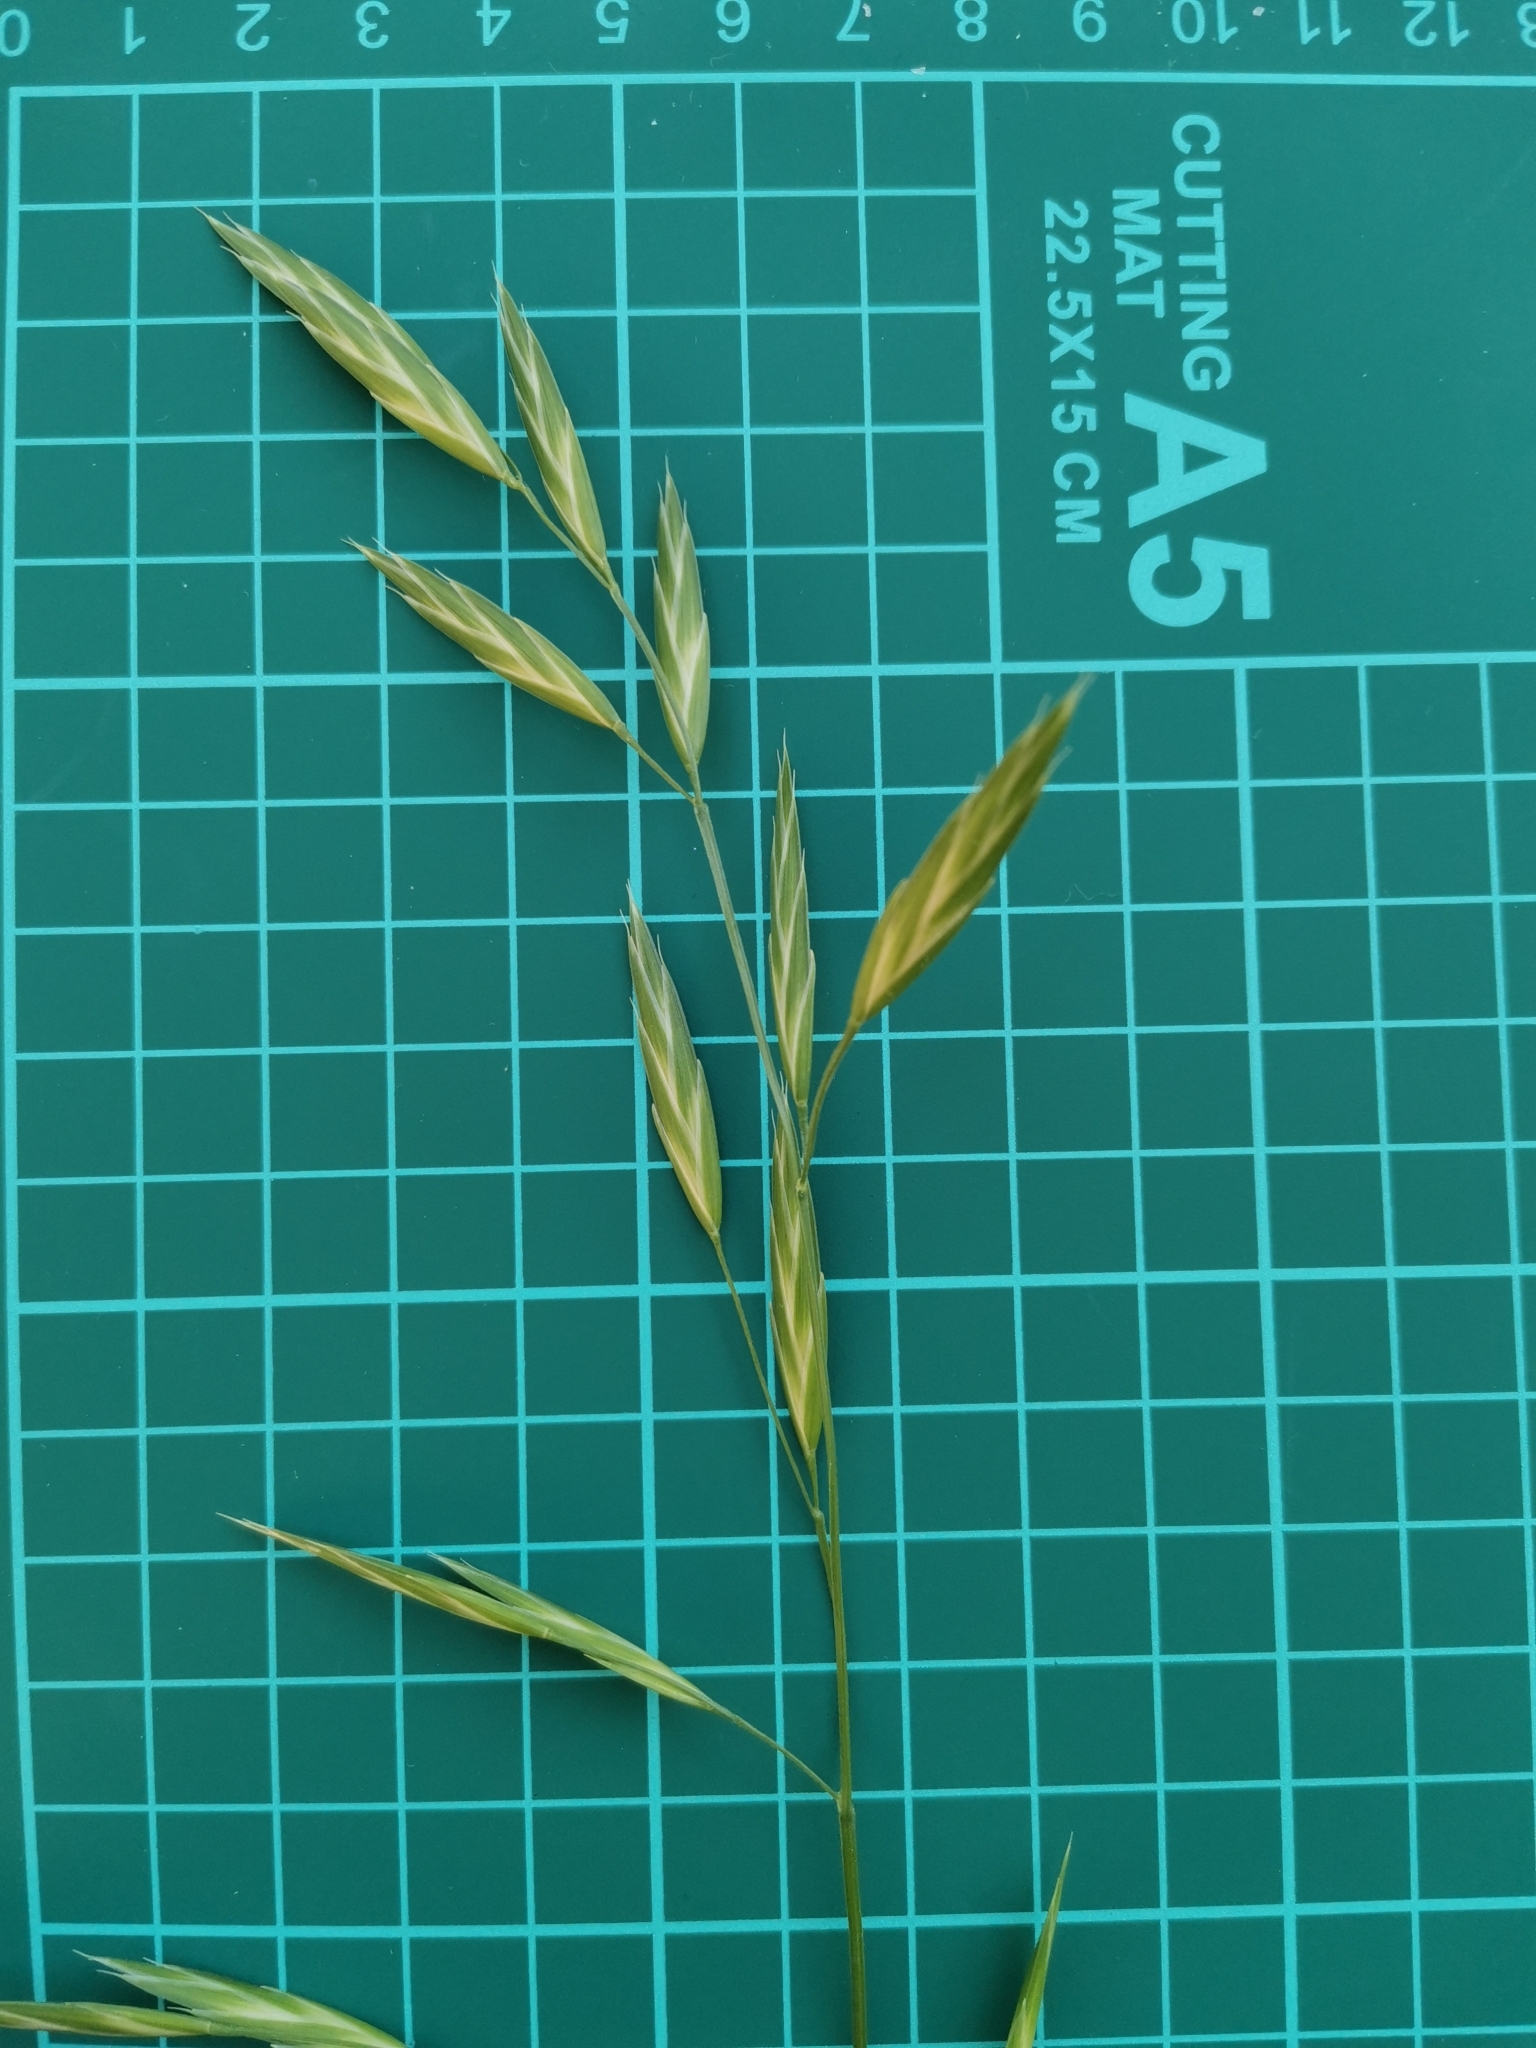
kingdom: Plantae
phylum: Tracheophyta
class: Liliopsida
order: Poales
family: Poaceae
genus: Bromus
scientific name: Bromus catharticus
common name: Rescuegrass
